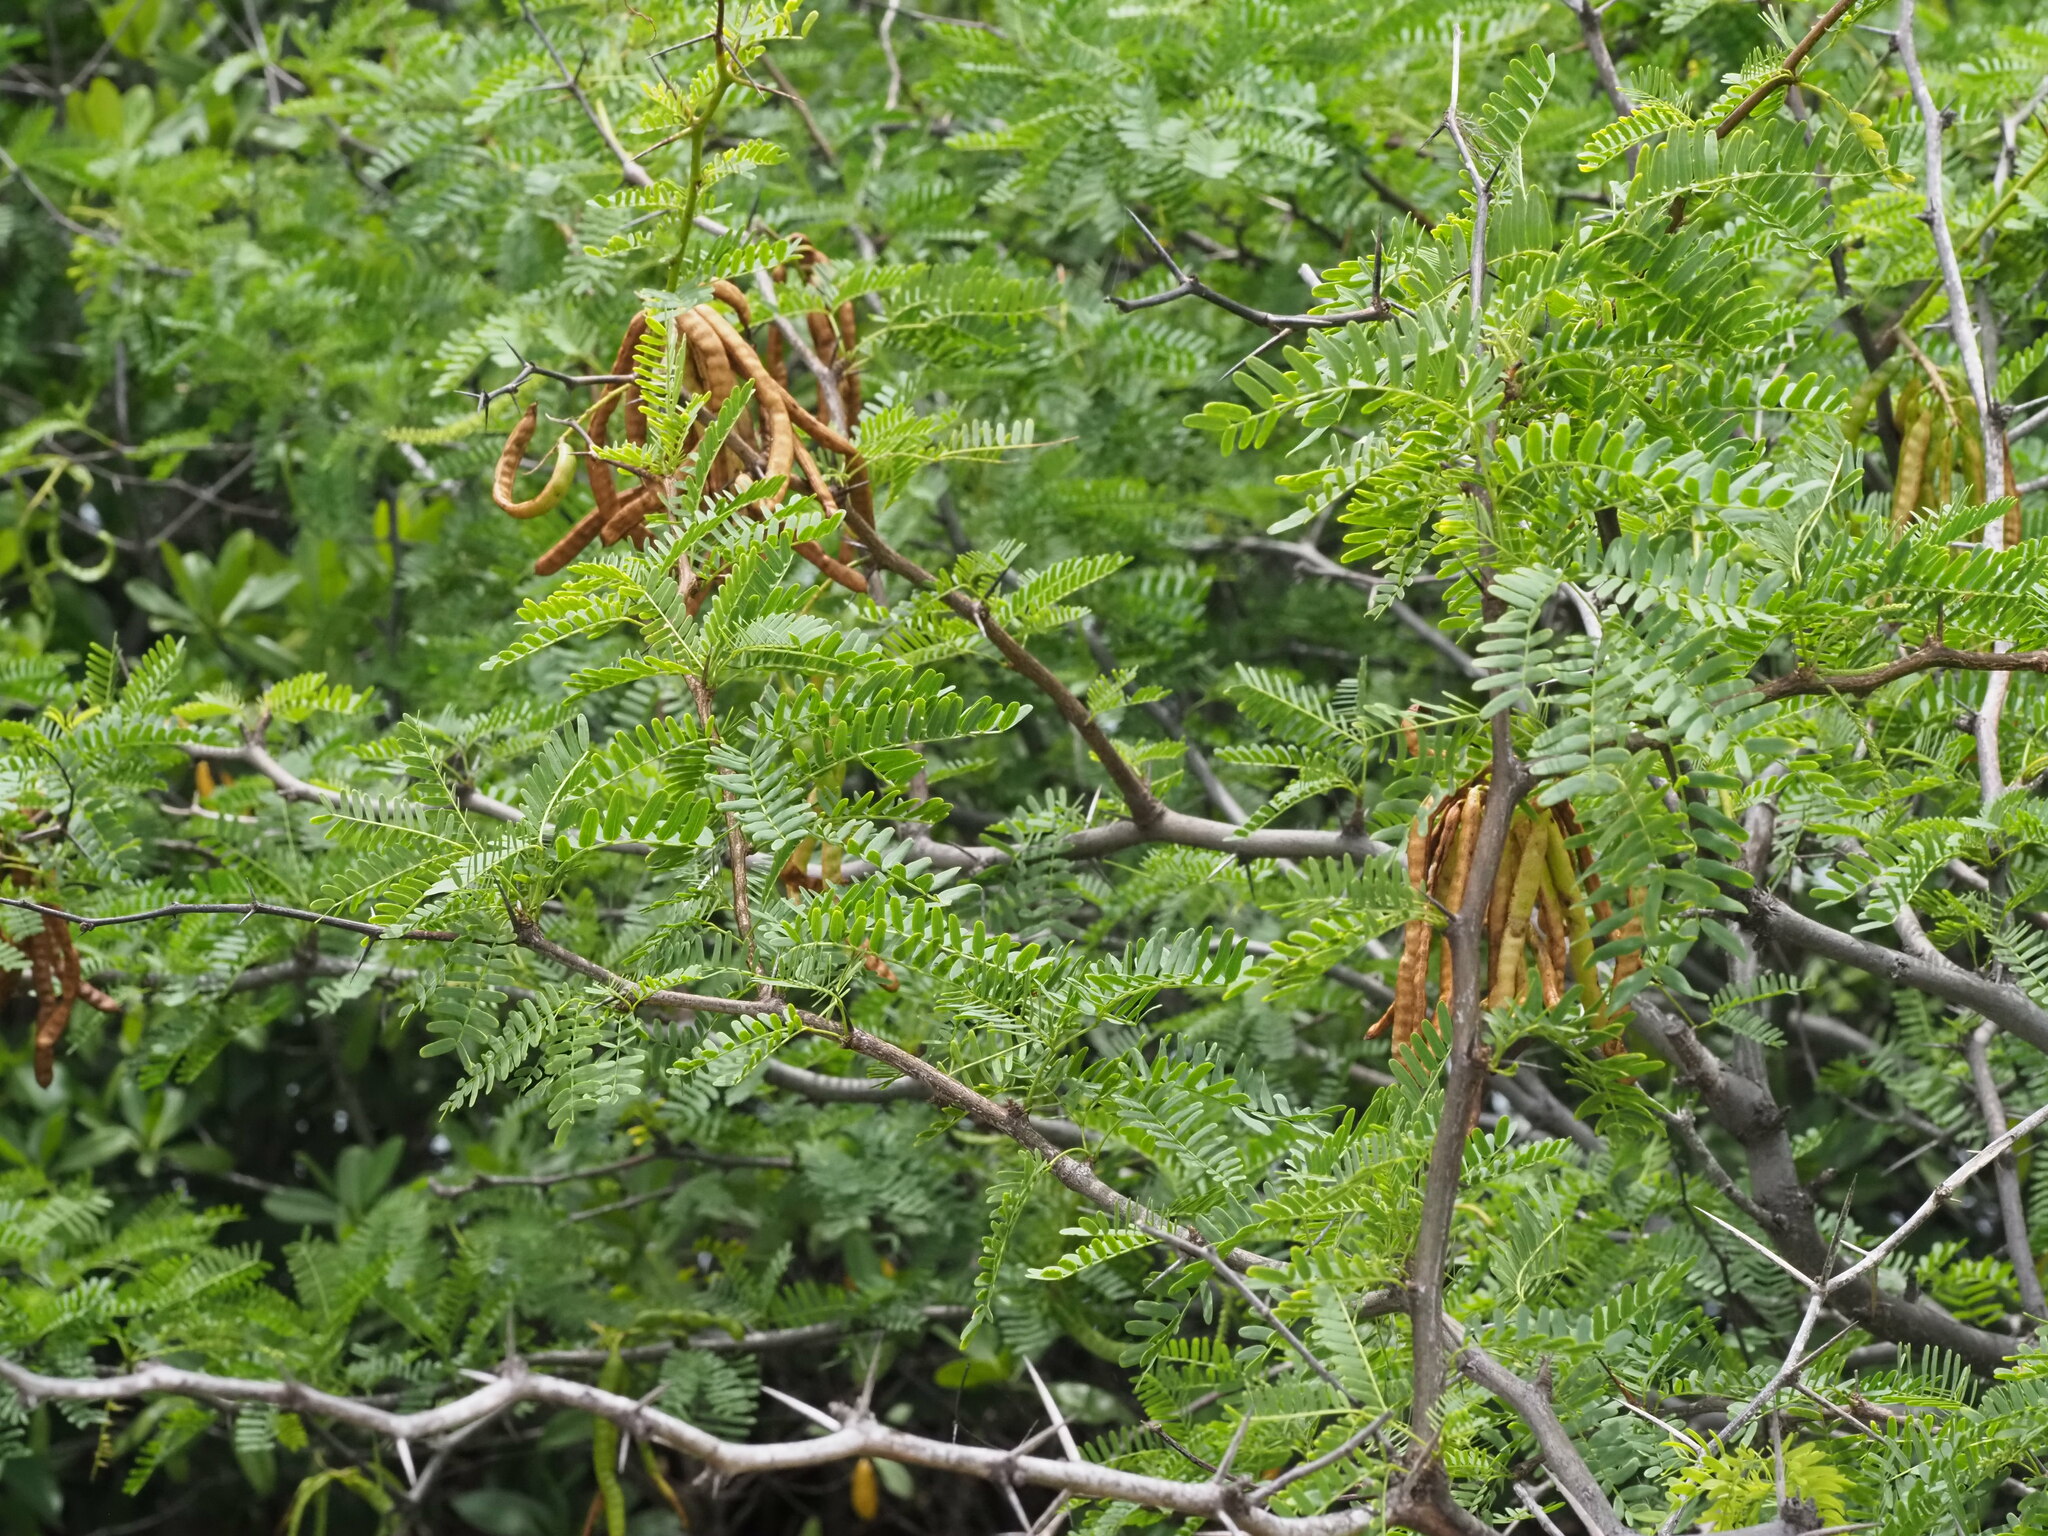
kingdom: Plantae
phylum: Tracheophyta
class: Magnoliopsida
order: Fabales
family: Fabaceae
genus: Prosopis
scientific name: Prosopis juliflora
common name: Mesquite
